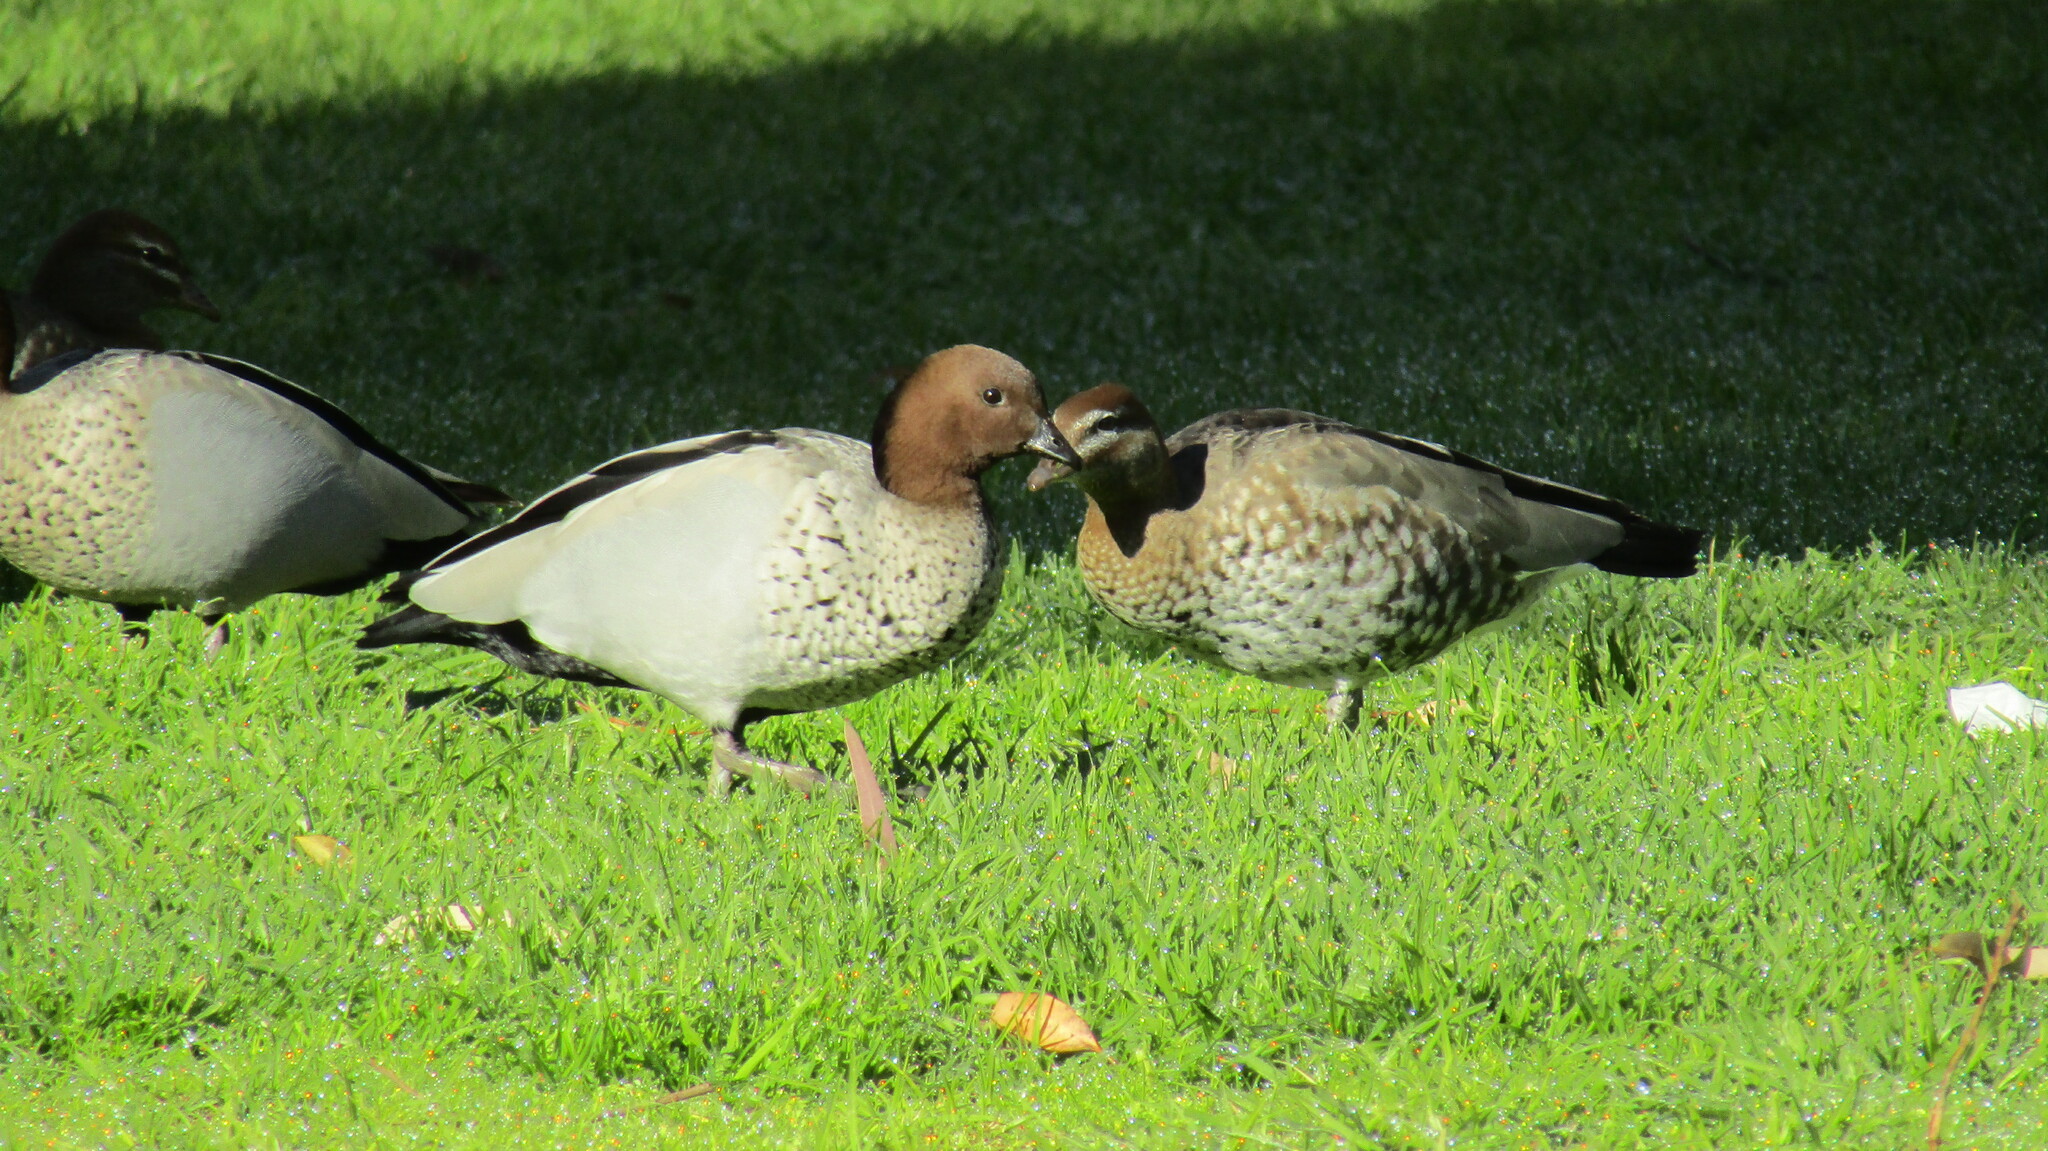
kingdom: Animalia
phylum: Chordata
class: Aves
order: Anseriformes
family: Anatidae
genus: Chenonetta
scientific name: Chenonetta jubata
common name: Maned duck
